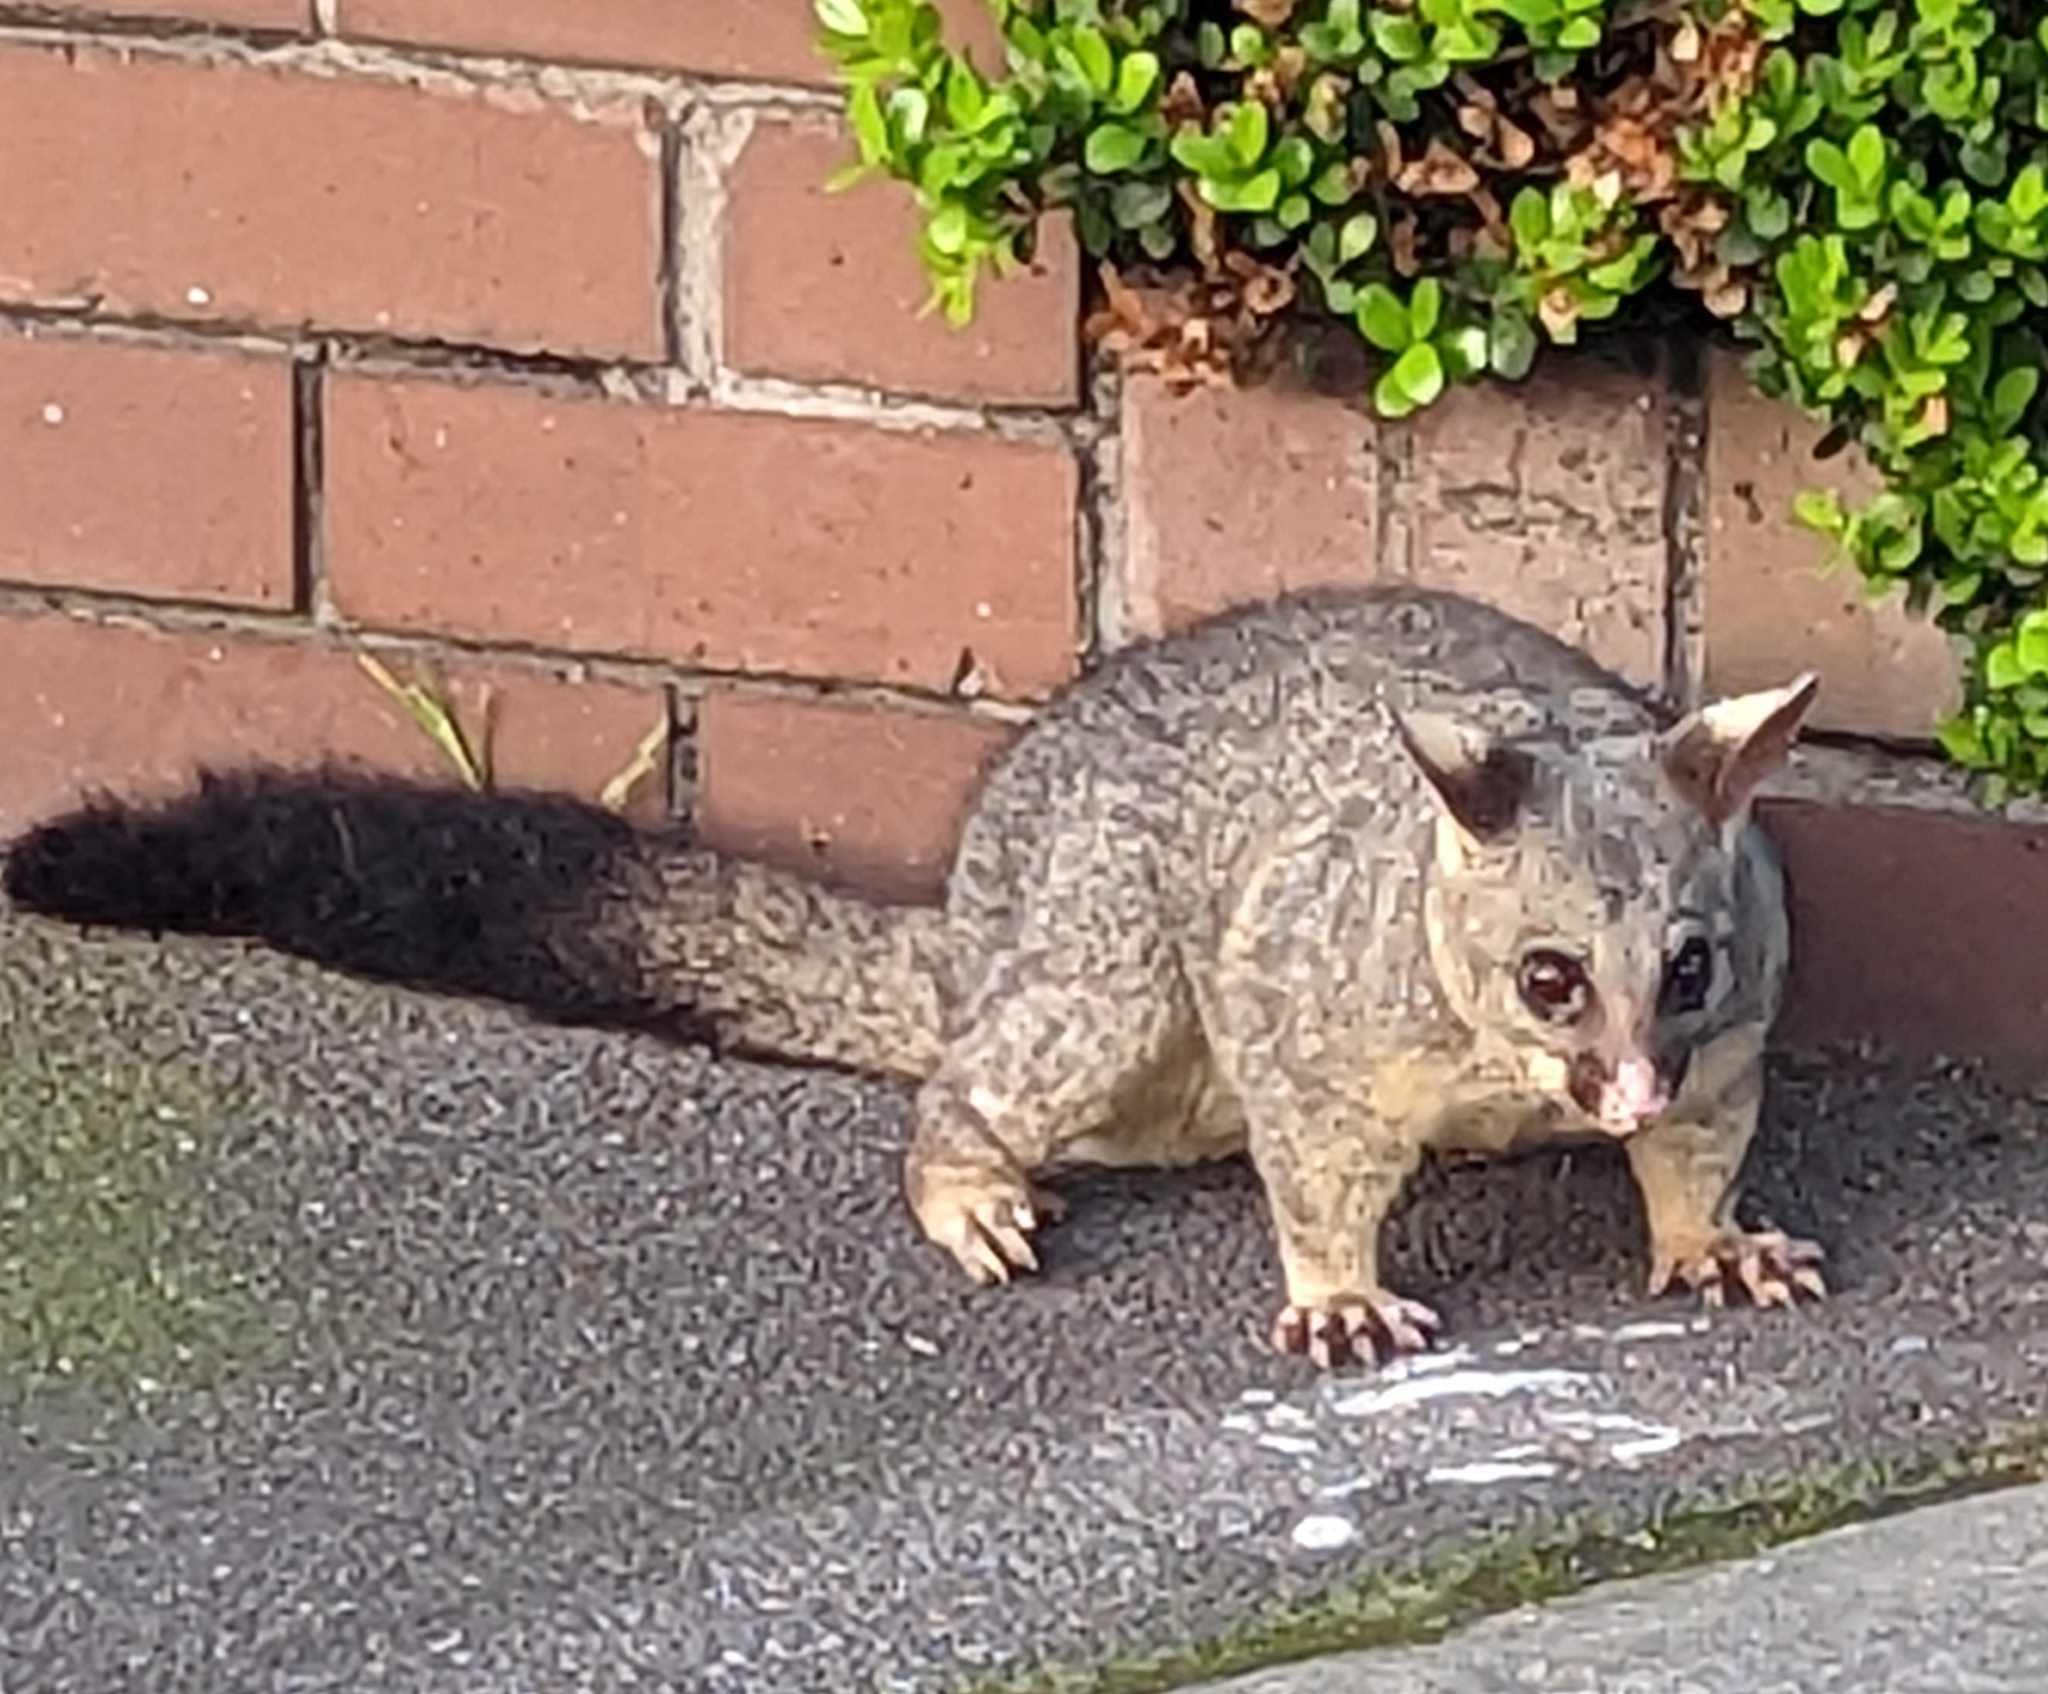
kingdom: Animalia
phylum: Chordata
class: Mammalia
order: Diprotodontia
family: Phalangeridae
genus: Trichosurus
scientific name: Trichosurus vulpecula
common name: Common brushtail
